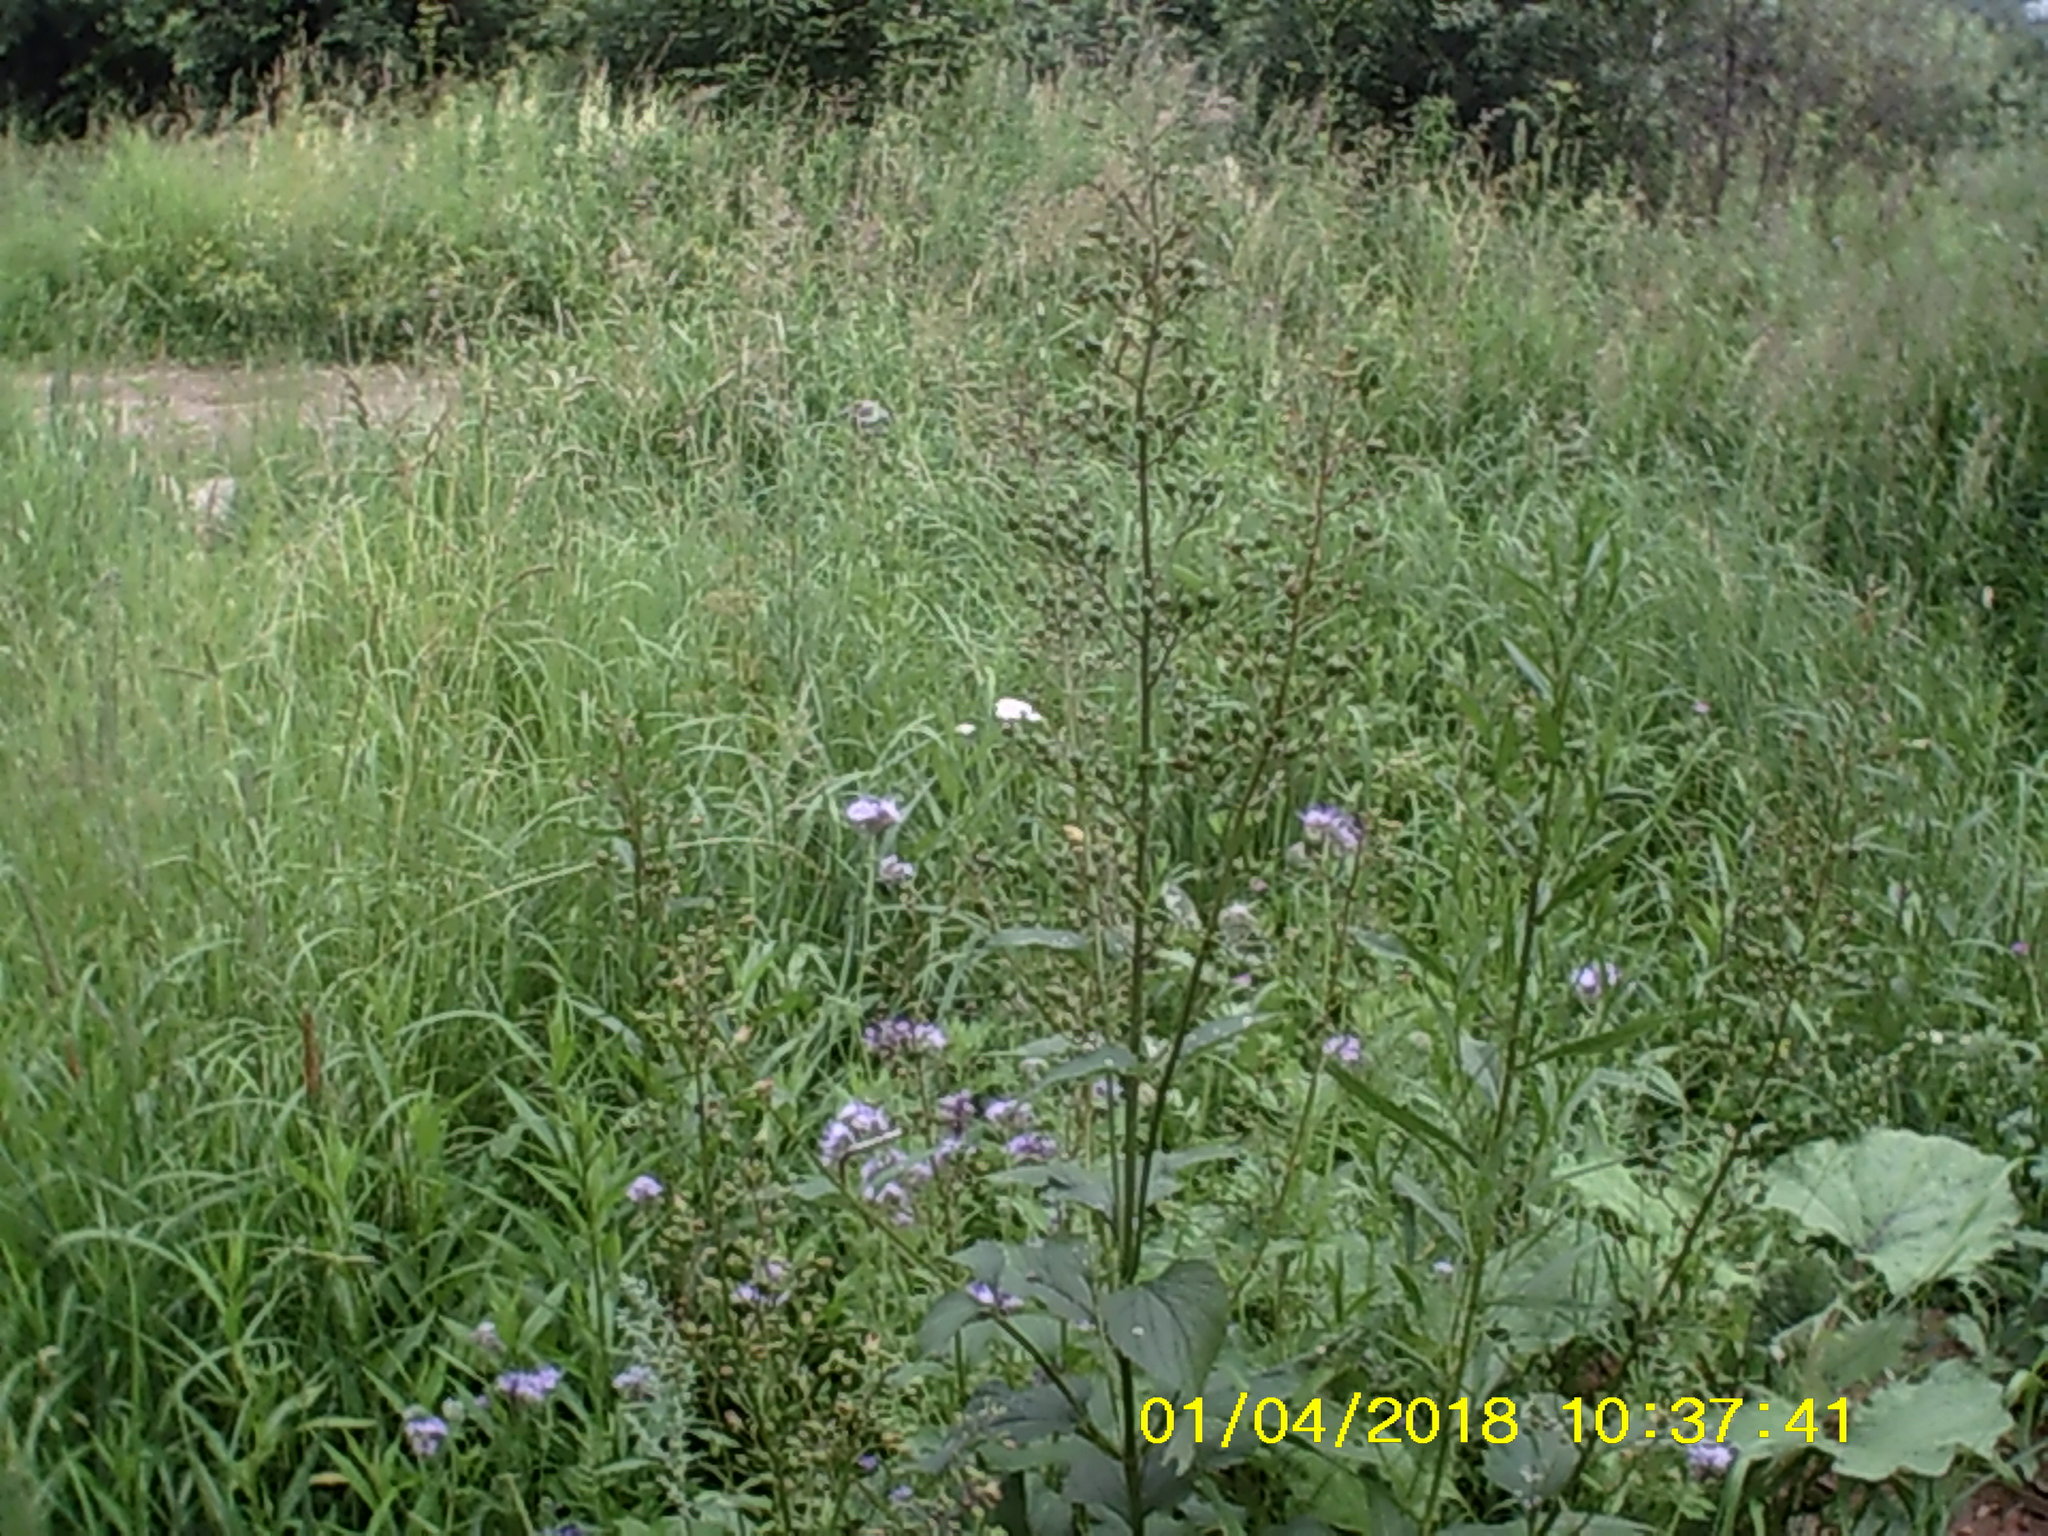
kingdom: Plantae
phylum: Tracheophyta
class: Magnoliopsida
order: Lamiales
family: Scrophulariaceae
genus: Scrophularia
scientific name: Scrophularia nodosa
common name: Common figwort
